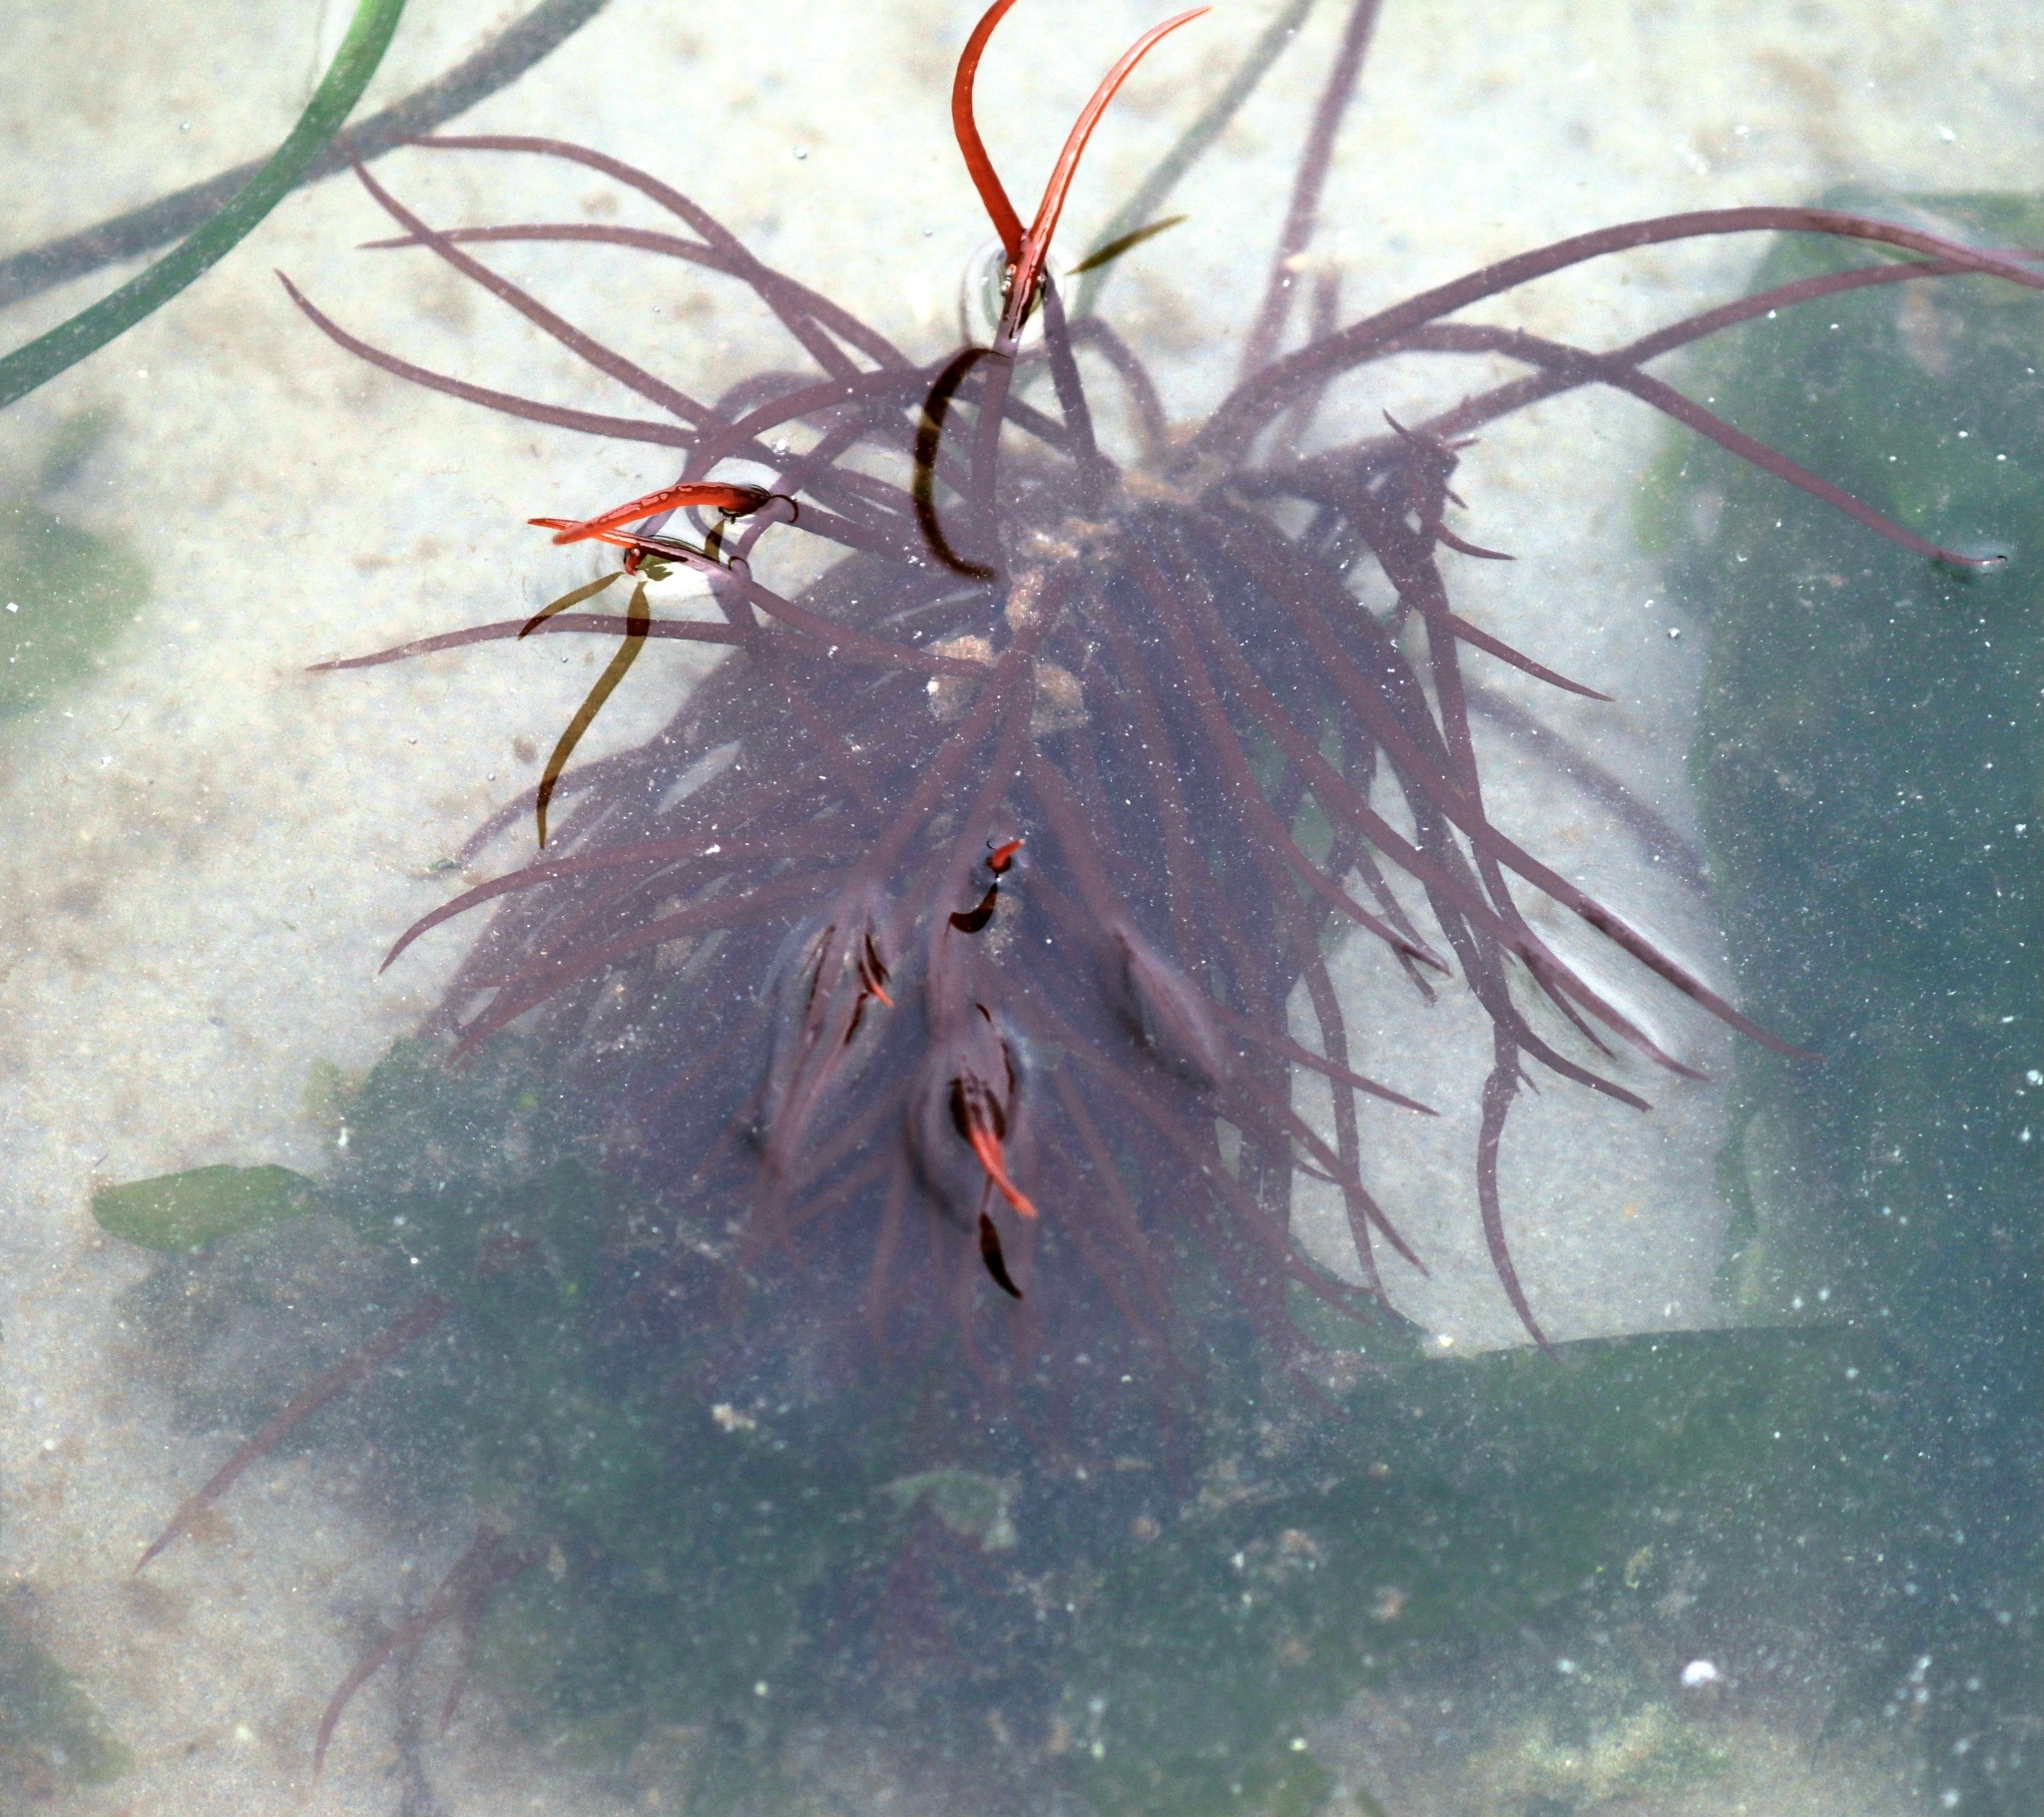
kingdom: Plantae
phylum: Rhodophyta
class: Florideophyceae
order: Gigartinales
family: Solieriaceae
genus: Sarcodiotheca
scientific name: Sarcodiotheca gaudichaudii
